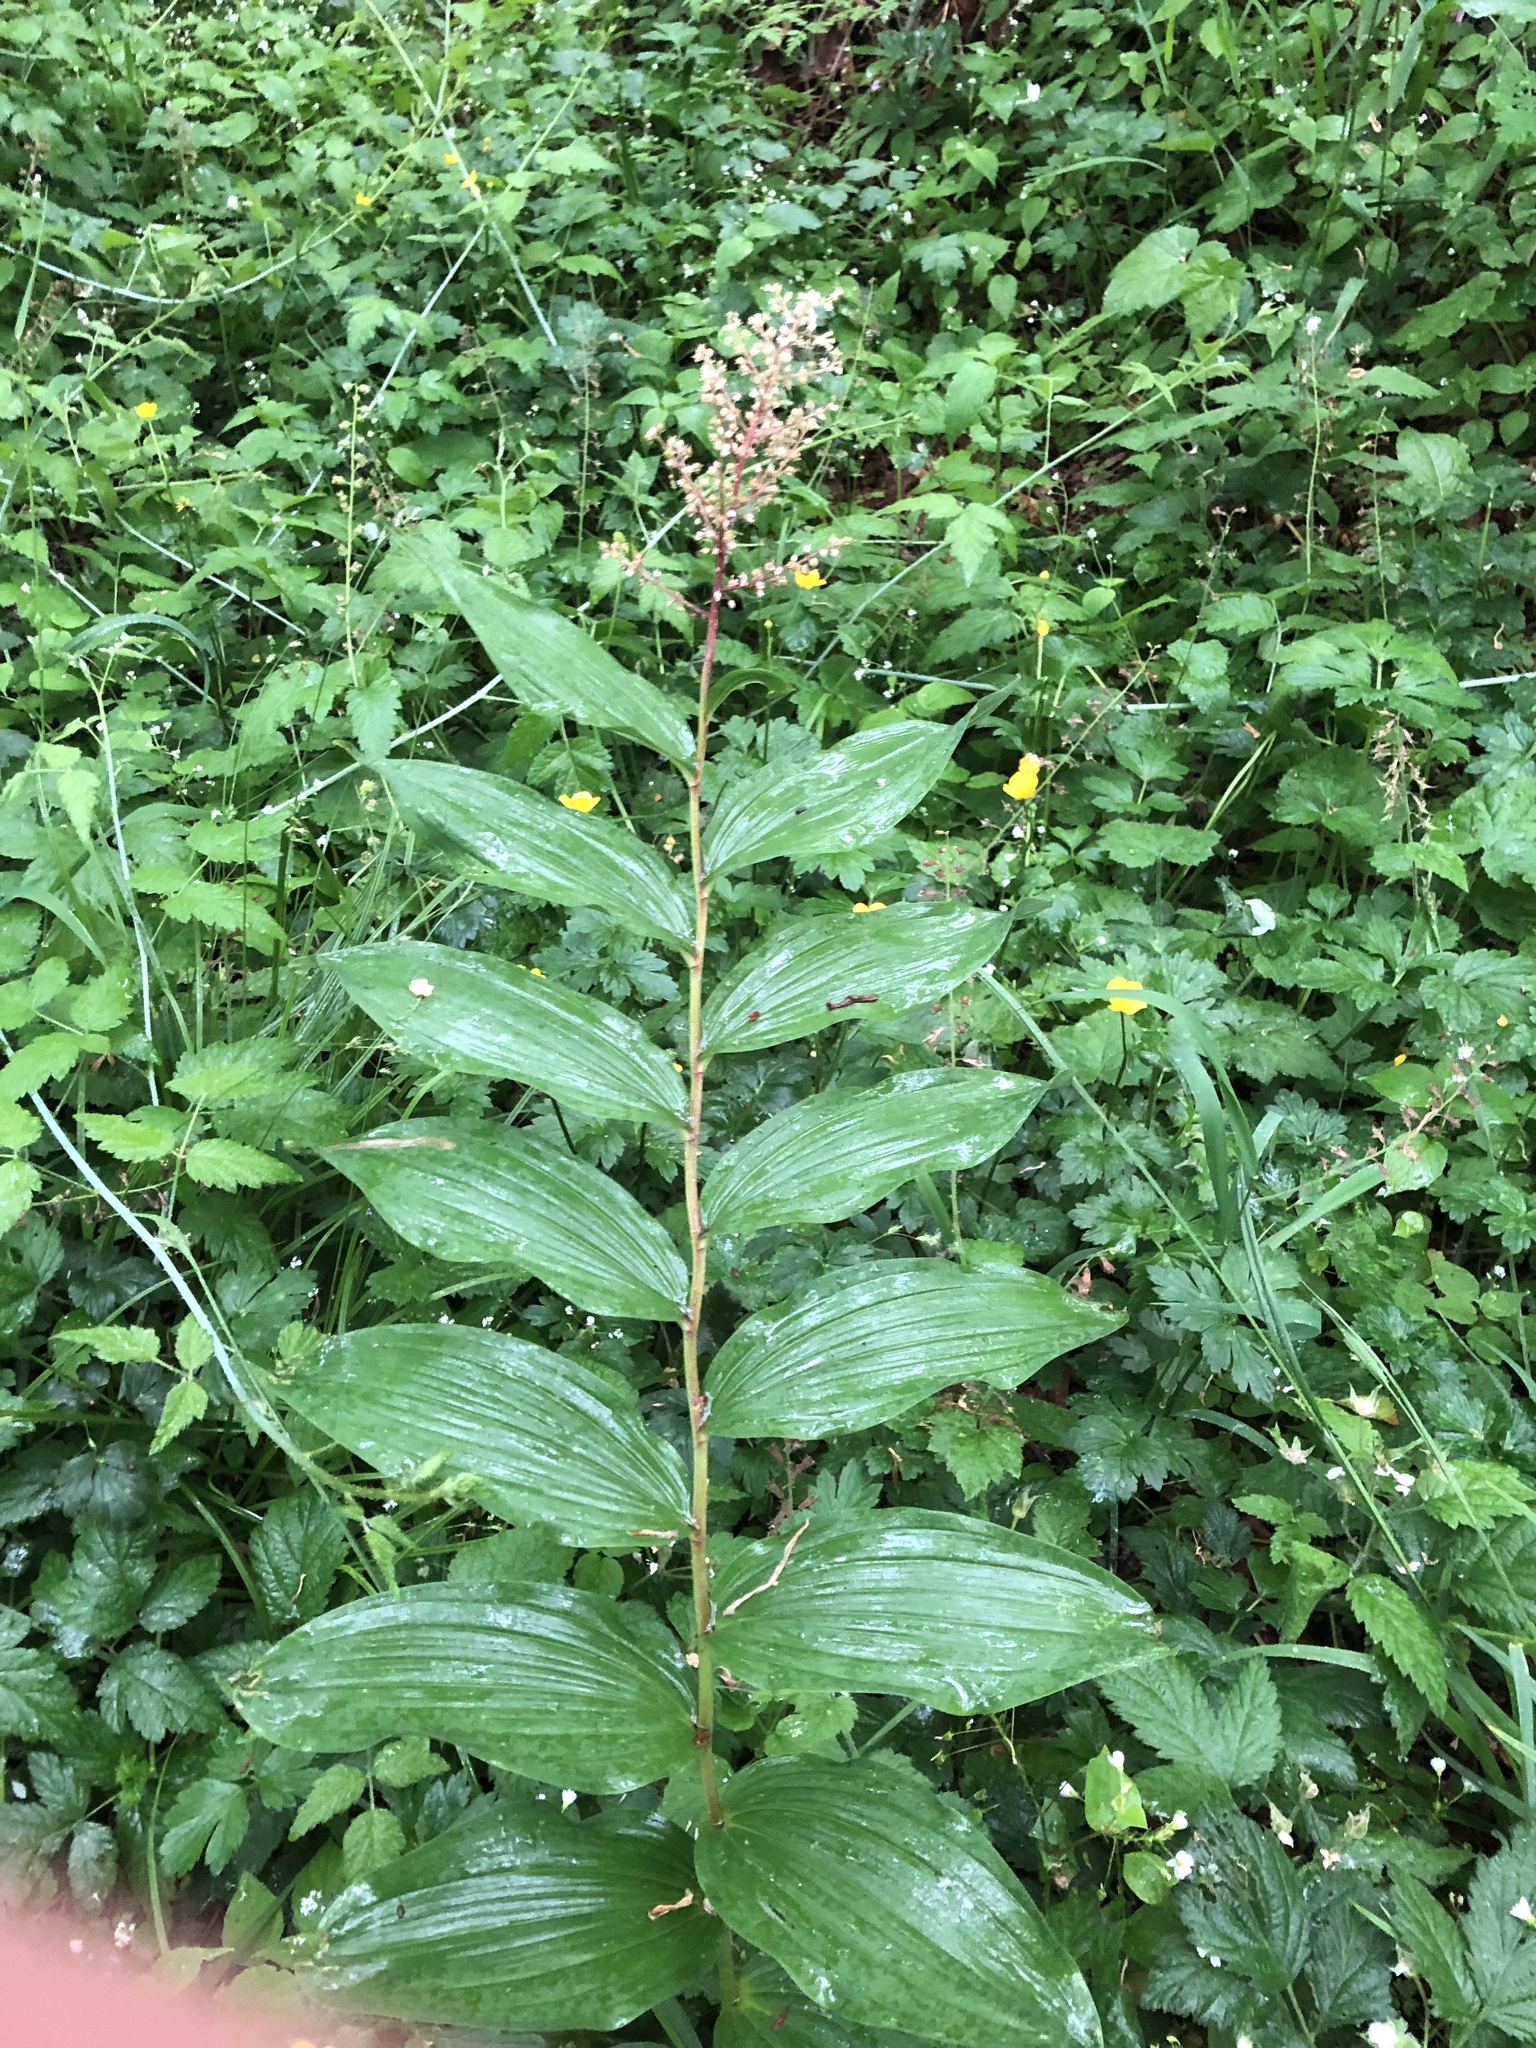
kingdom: Plantae
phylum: Tracheophyta
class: Liliopsida
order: Asparagales
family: Asparagaceae
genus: Maianthemum
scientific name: Maianthemum racemosum
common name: False spikenard
